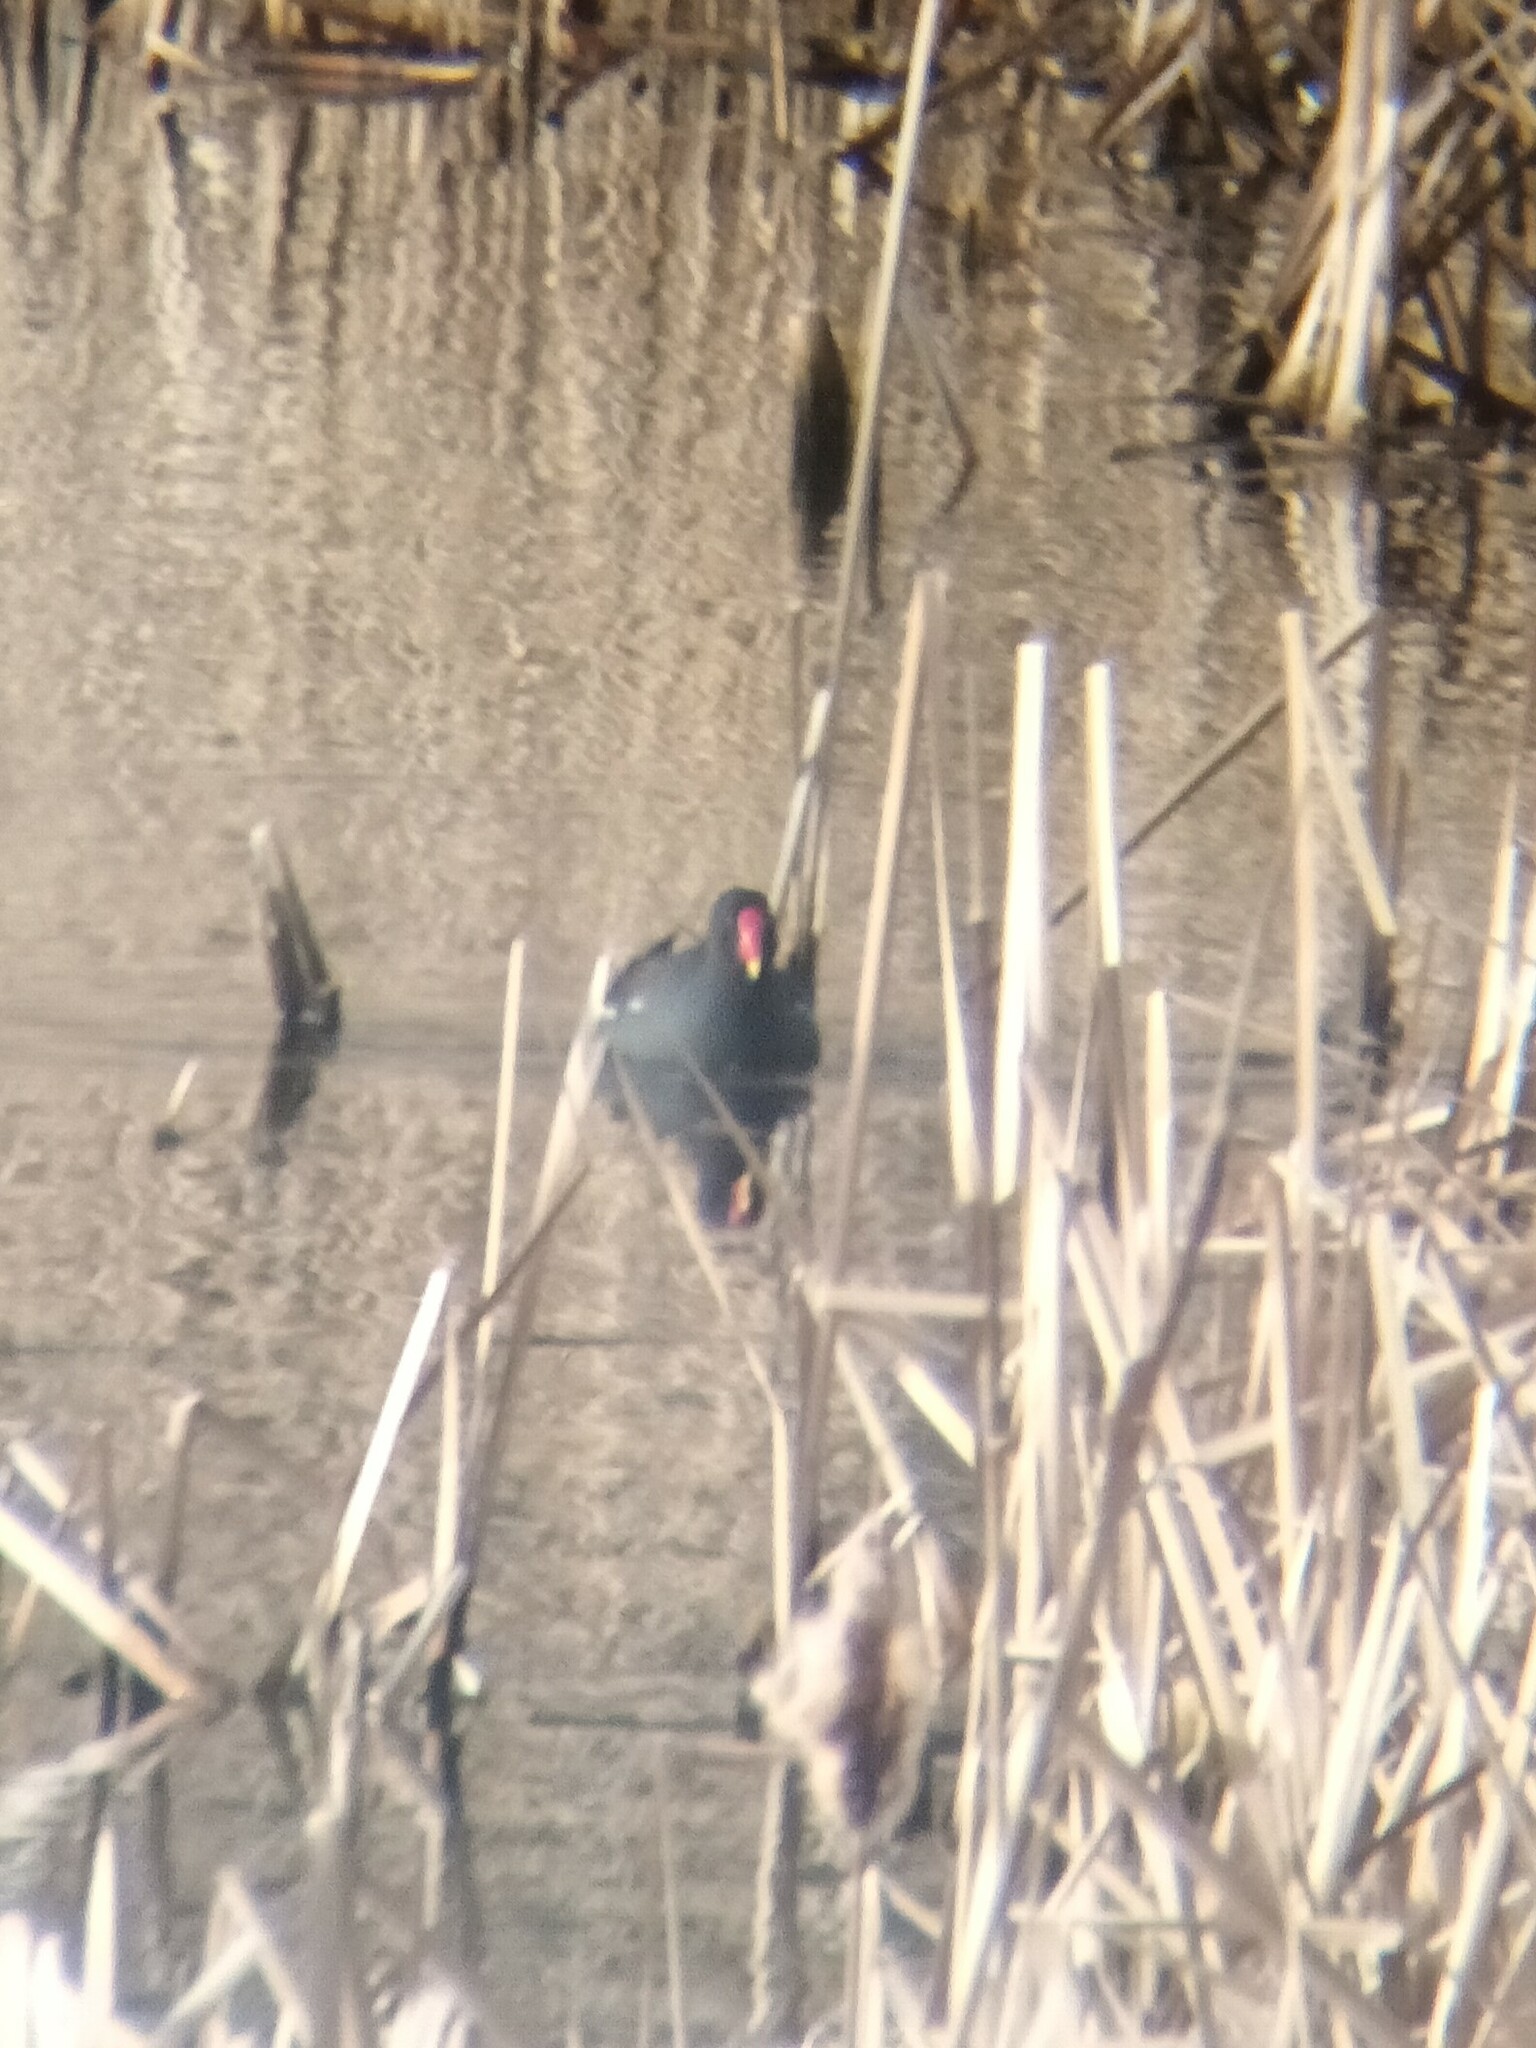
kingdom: Animalia
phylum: Chordata
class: Aves
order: Gruiformes
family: Rallidae
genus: Gallinula
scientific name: Gallinula chloropus
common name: Common moorhen
